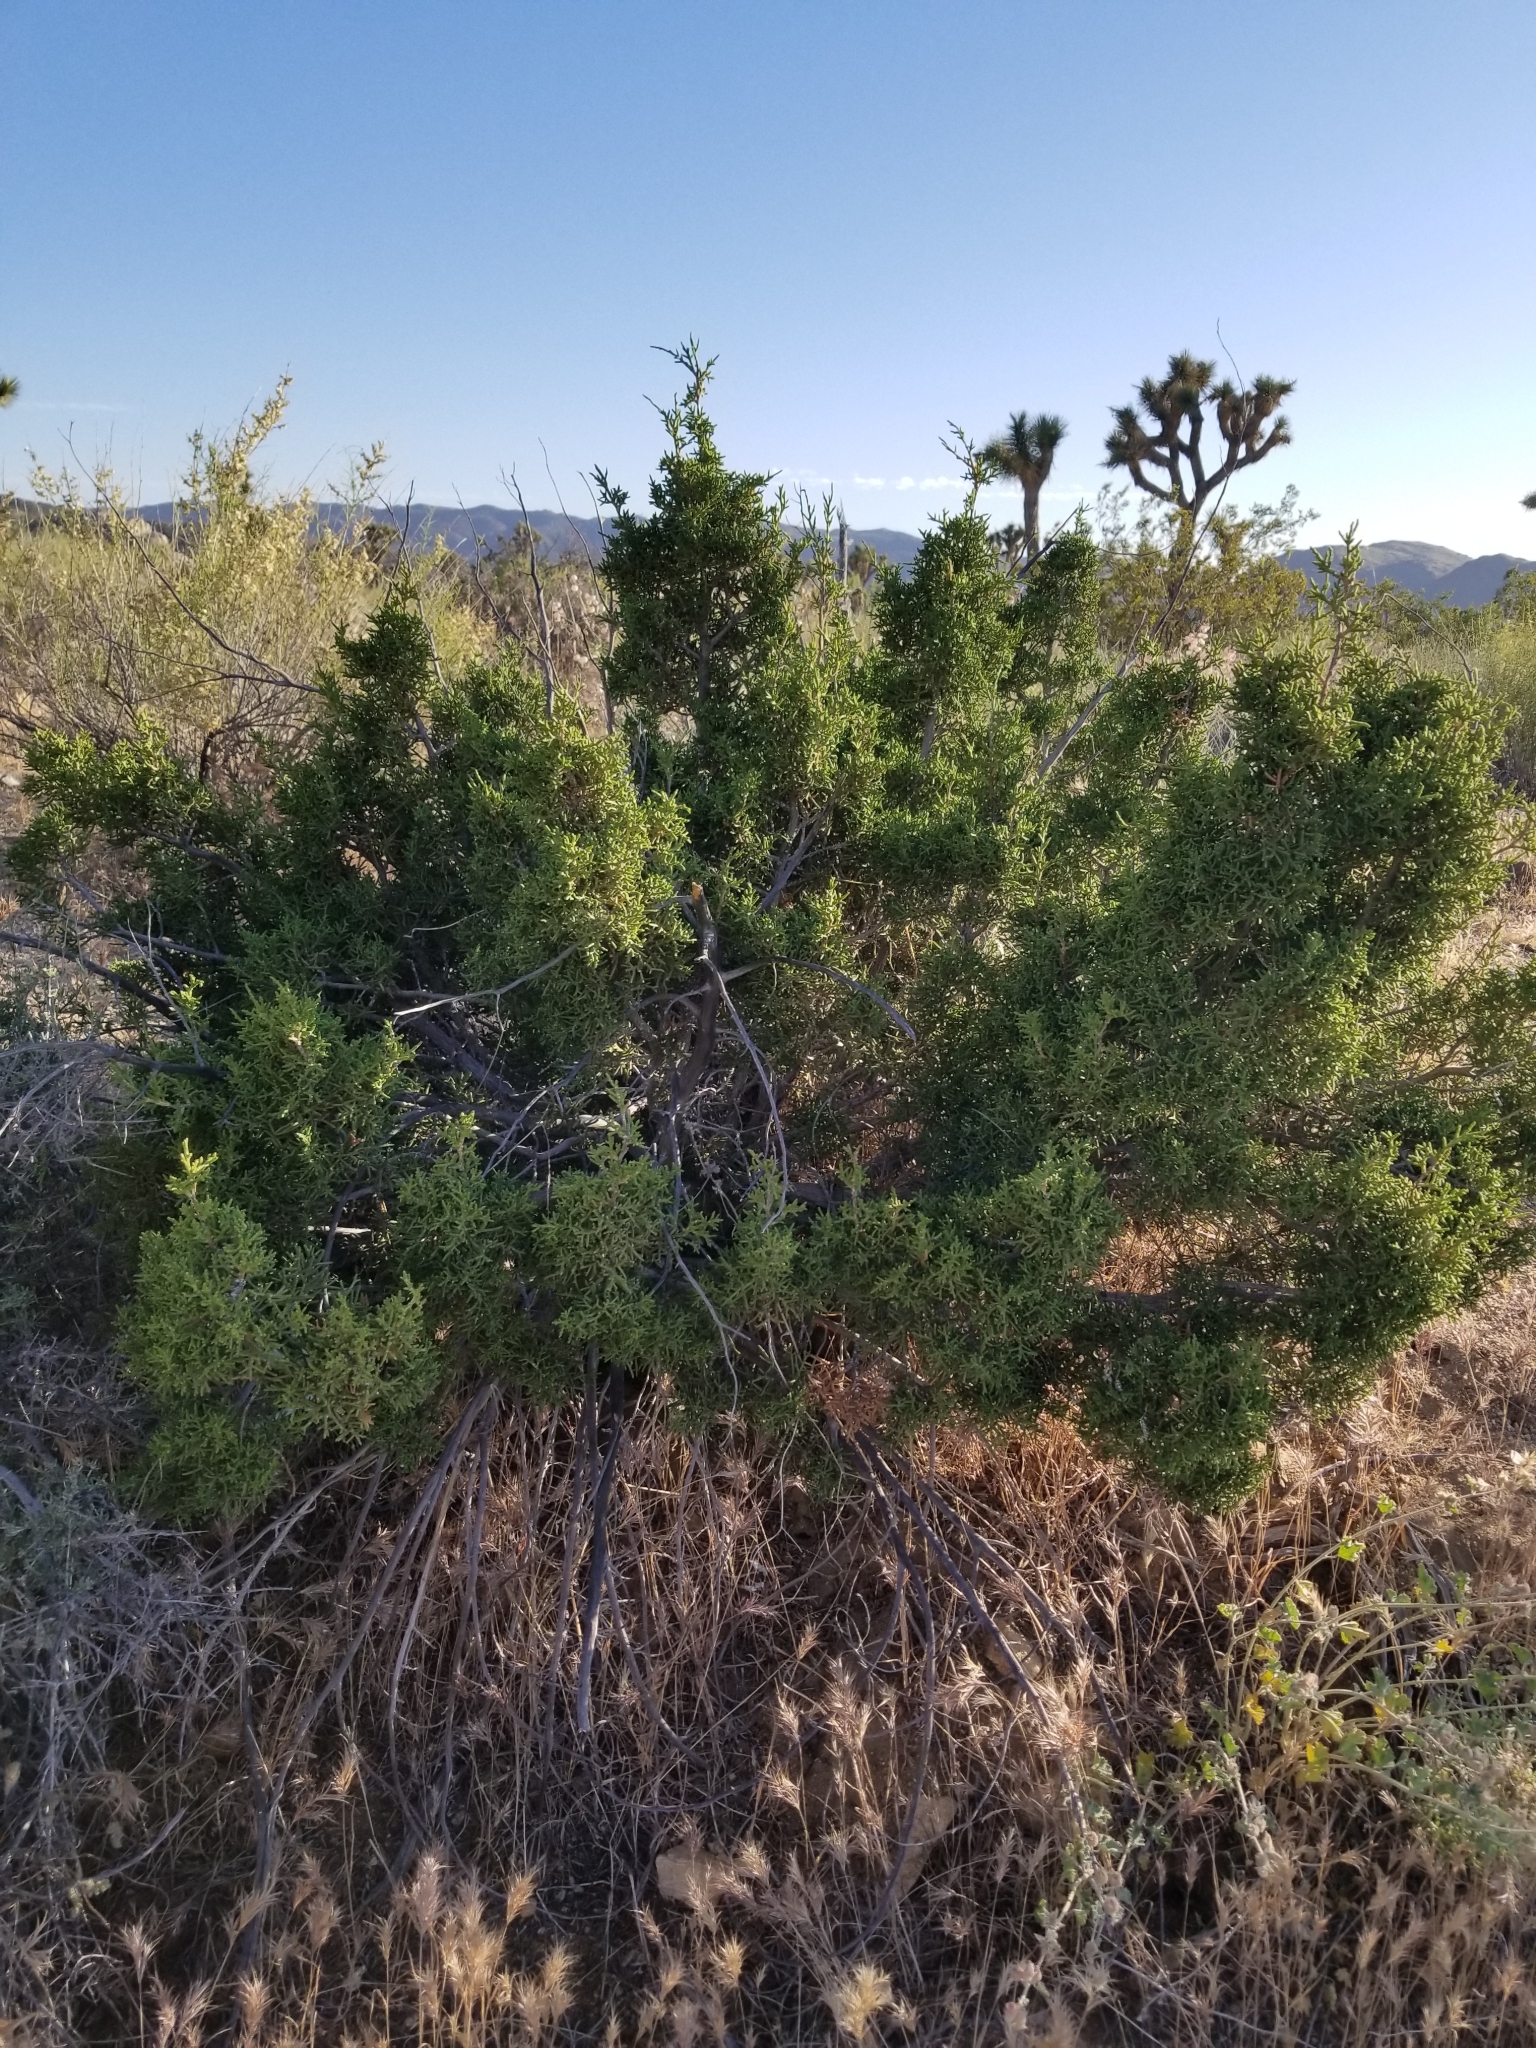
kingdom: Plantae
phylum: Tracheophyta
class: Pinopsida
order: Pinales
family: Cupressaceae
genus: Juniperus
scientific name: Juniperus californica
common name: California juniper
